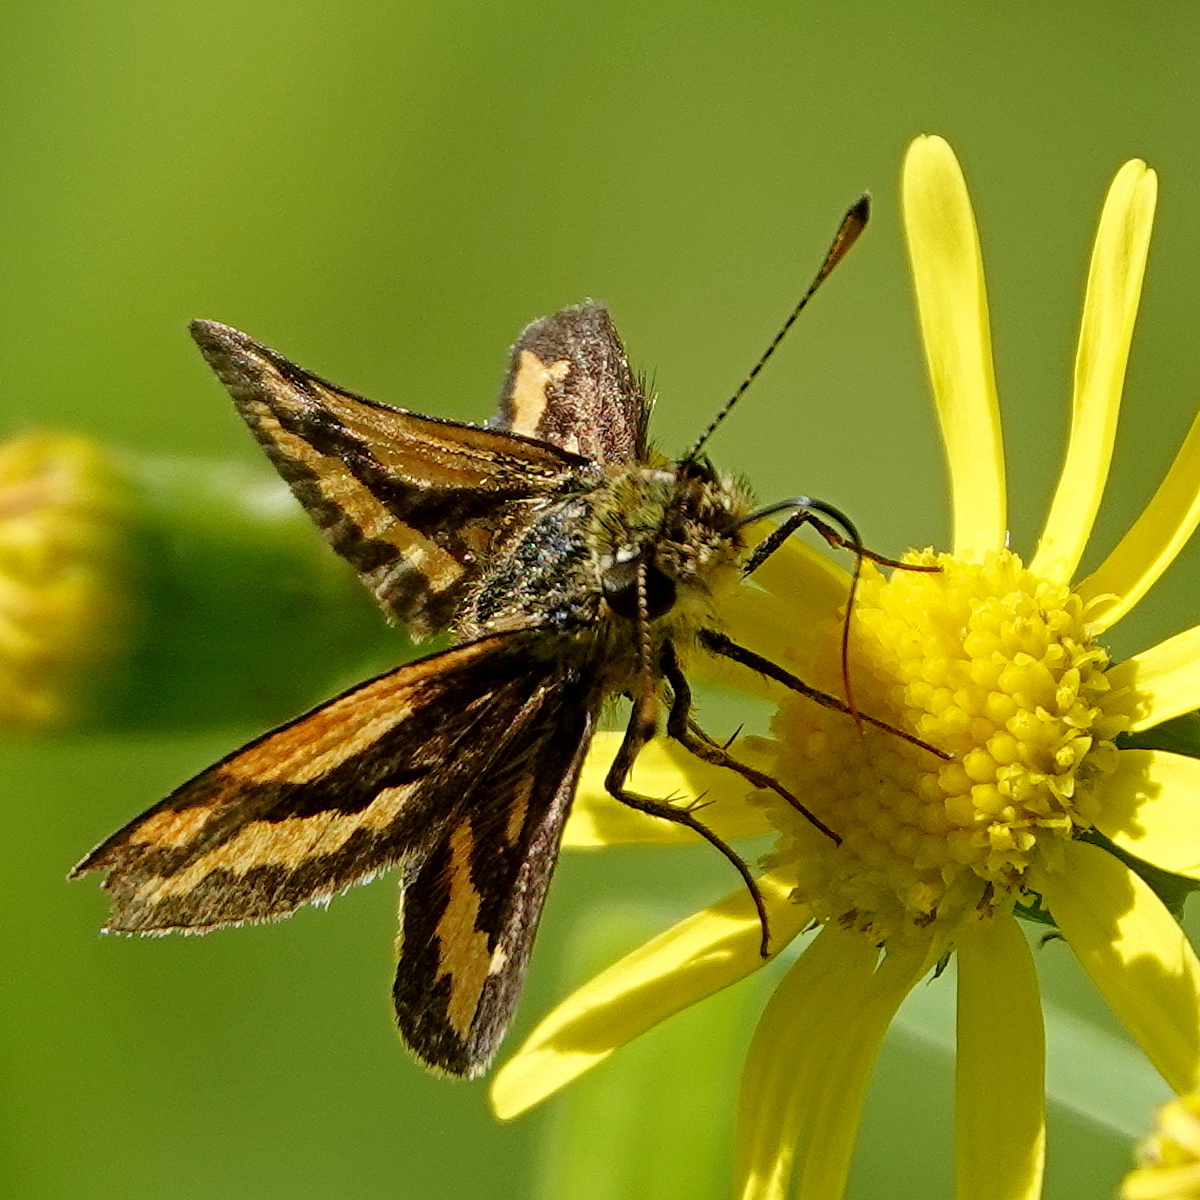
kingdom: Animalia
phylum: Arthropoda
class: Insecta
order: Lepidoptera
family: Hesperiidae
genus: Ocybadistes
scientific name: Ocybadistes flavovittata
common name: Narrow-brand grass-dart
